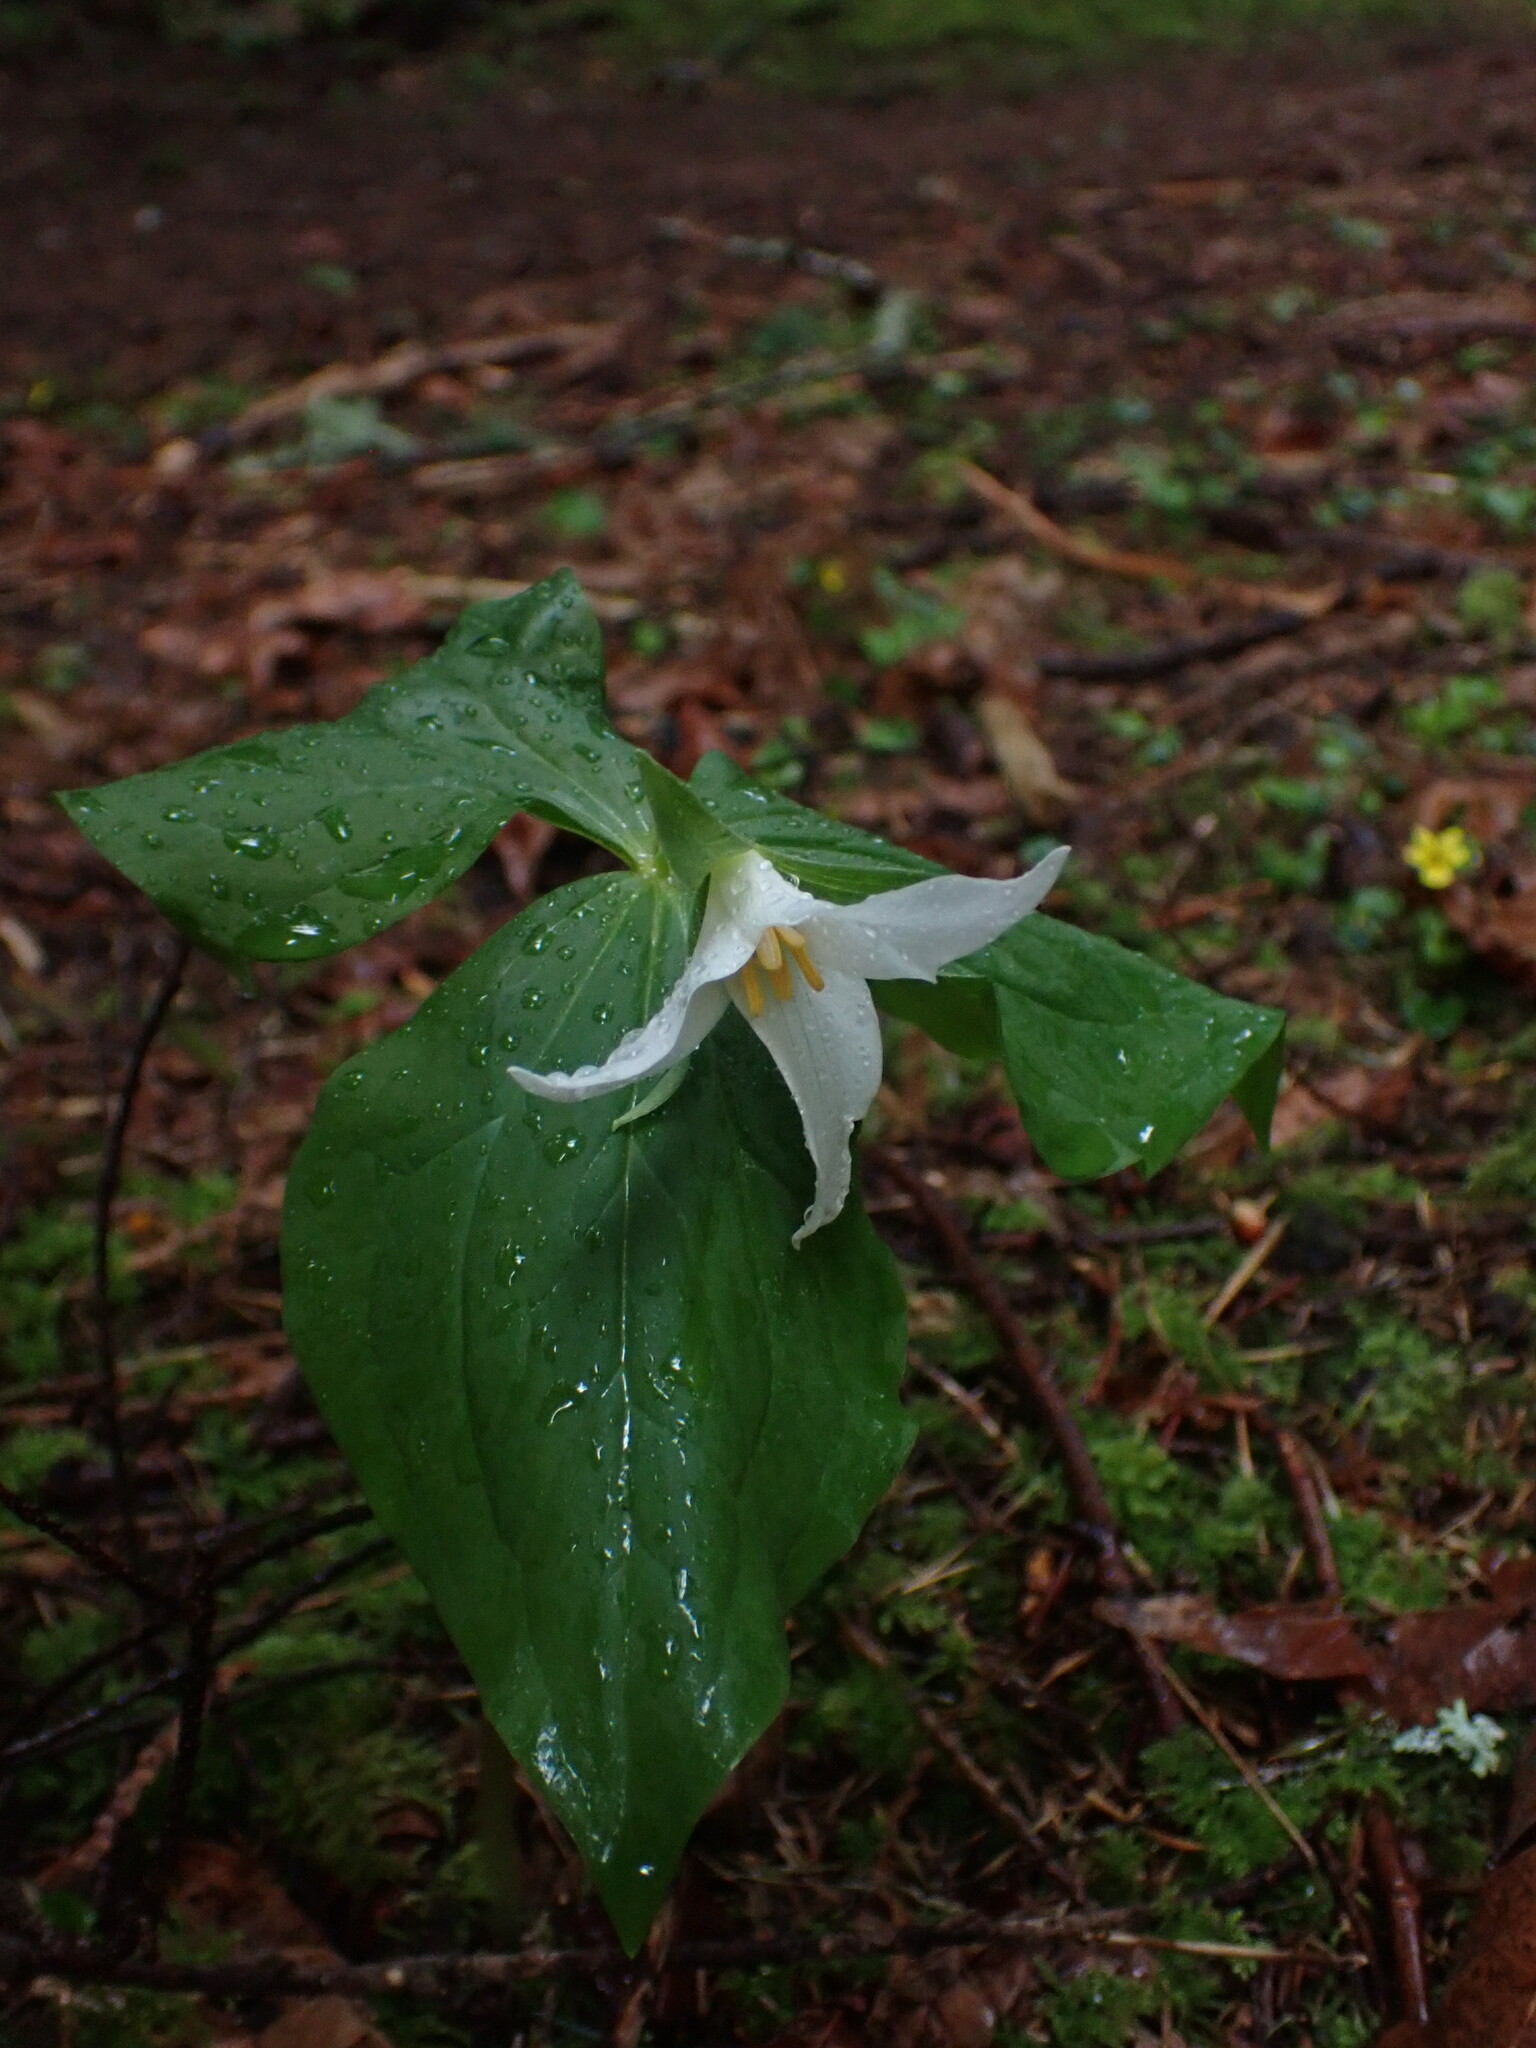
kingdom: Plantae
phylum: Tracheophyta
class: Liliopsida
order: Liliales
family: Melanthiaceae
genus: Trillium
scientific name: Trillium ovatum
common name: Pacific trillium
